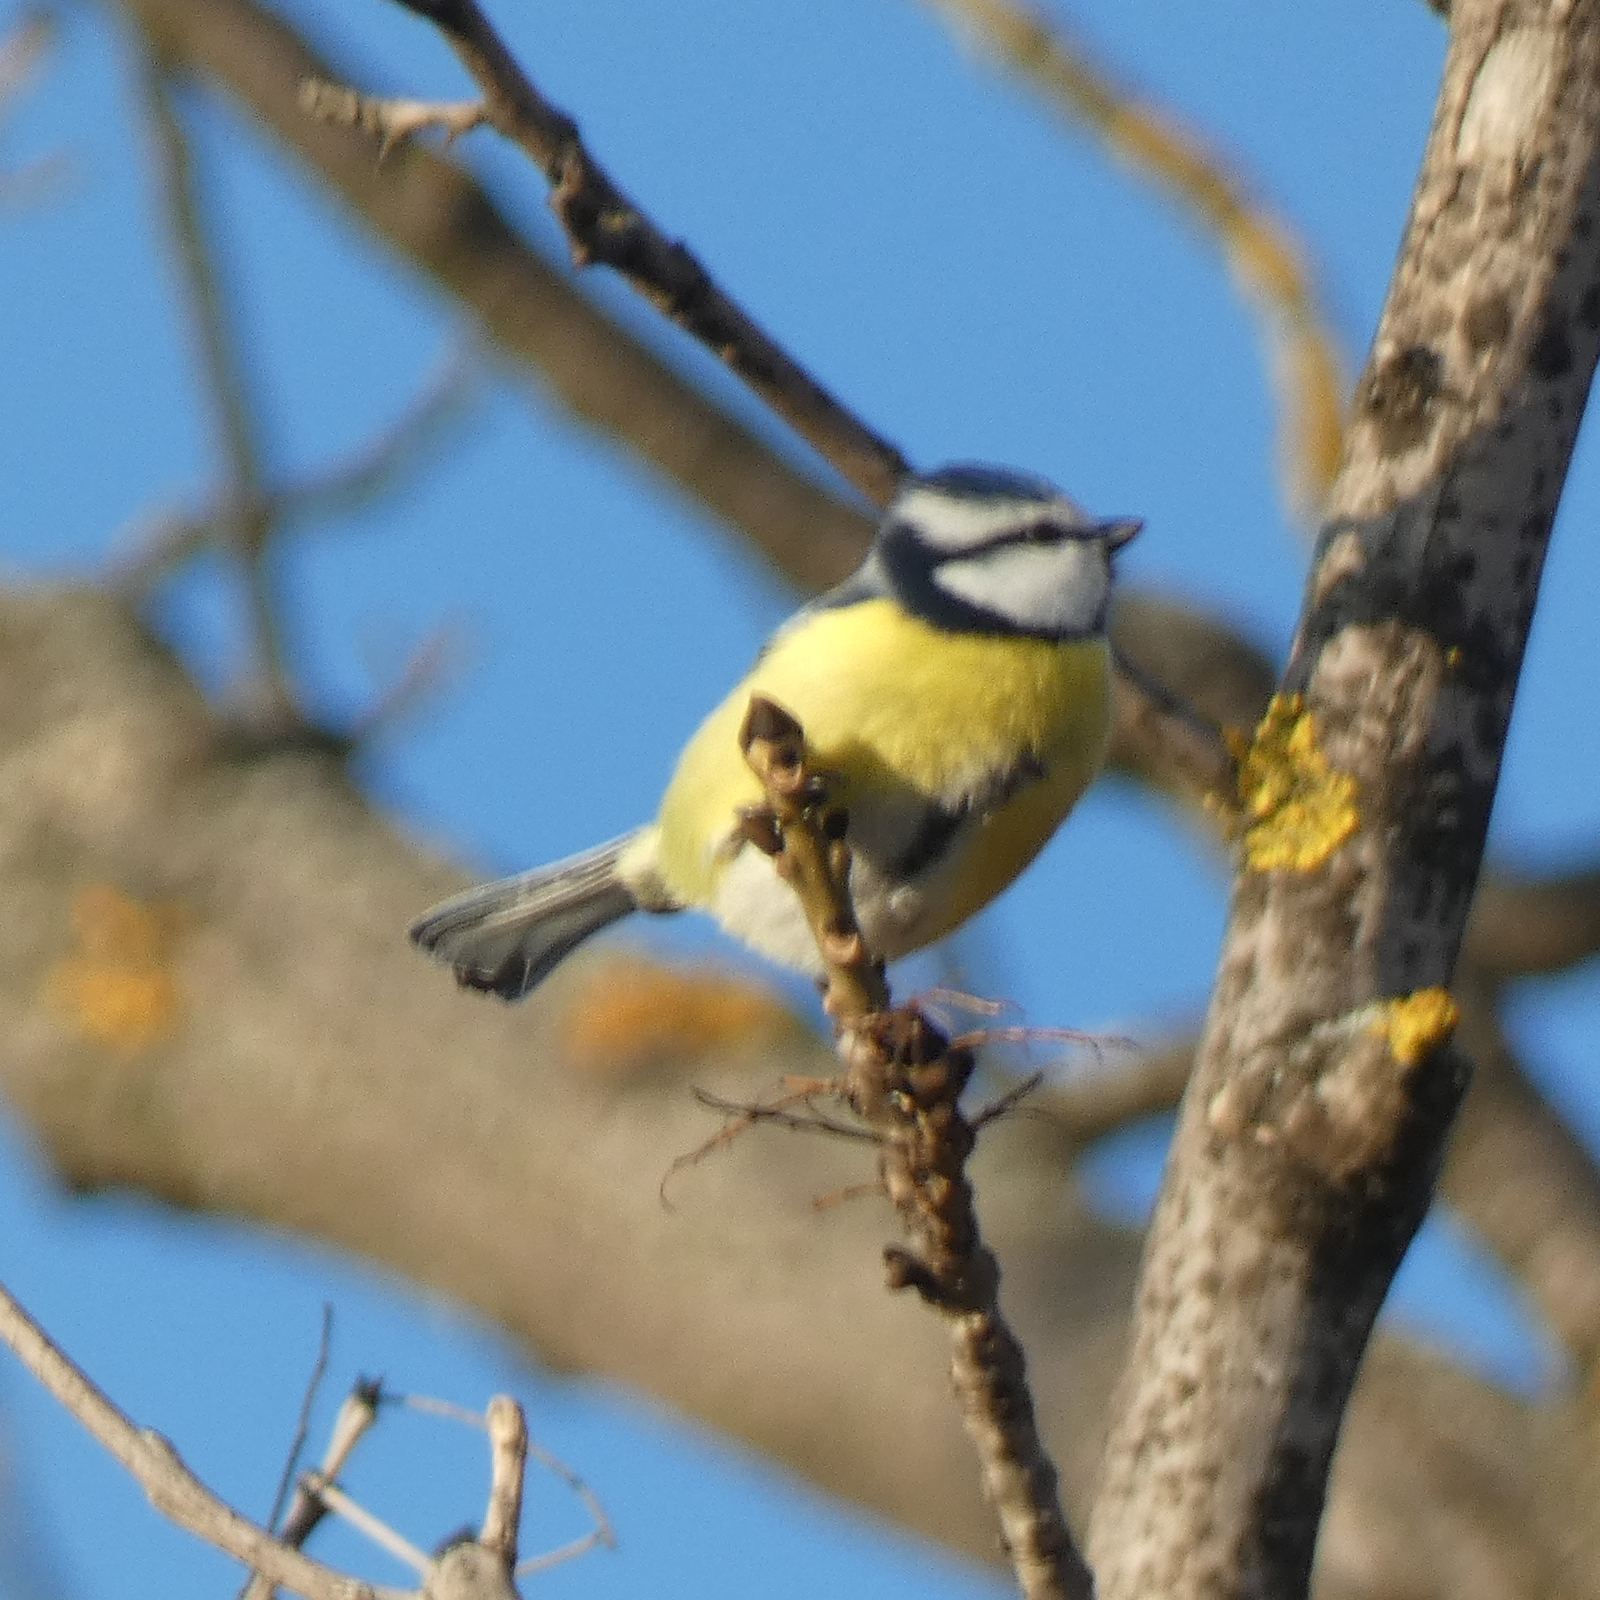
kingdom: Animalia
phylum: Chordata
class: Aves
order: Passeriformes
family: Paridae
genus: Cyanistes
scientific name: Cyanistes caeruleus
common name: Eurasian blue tit
